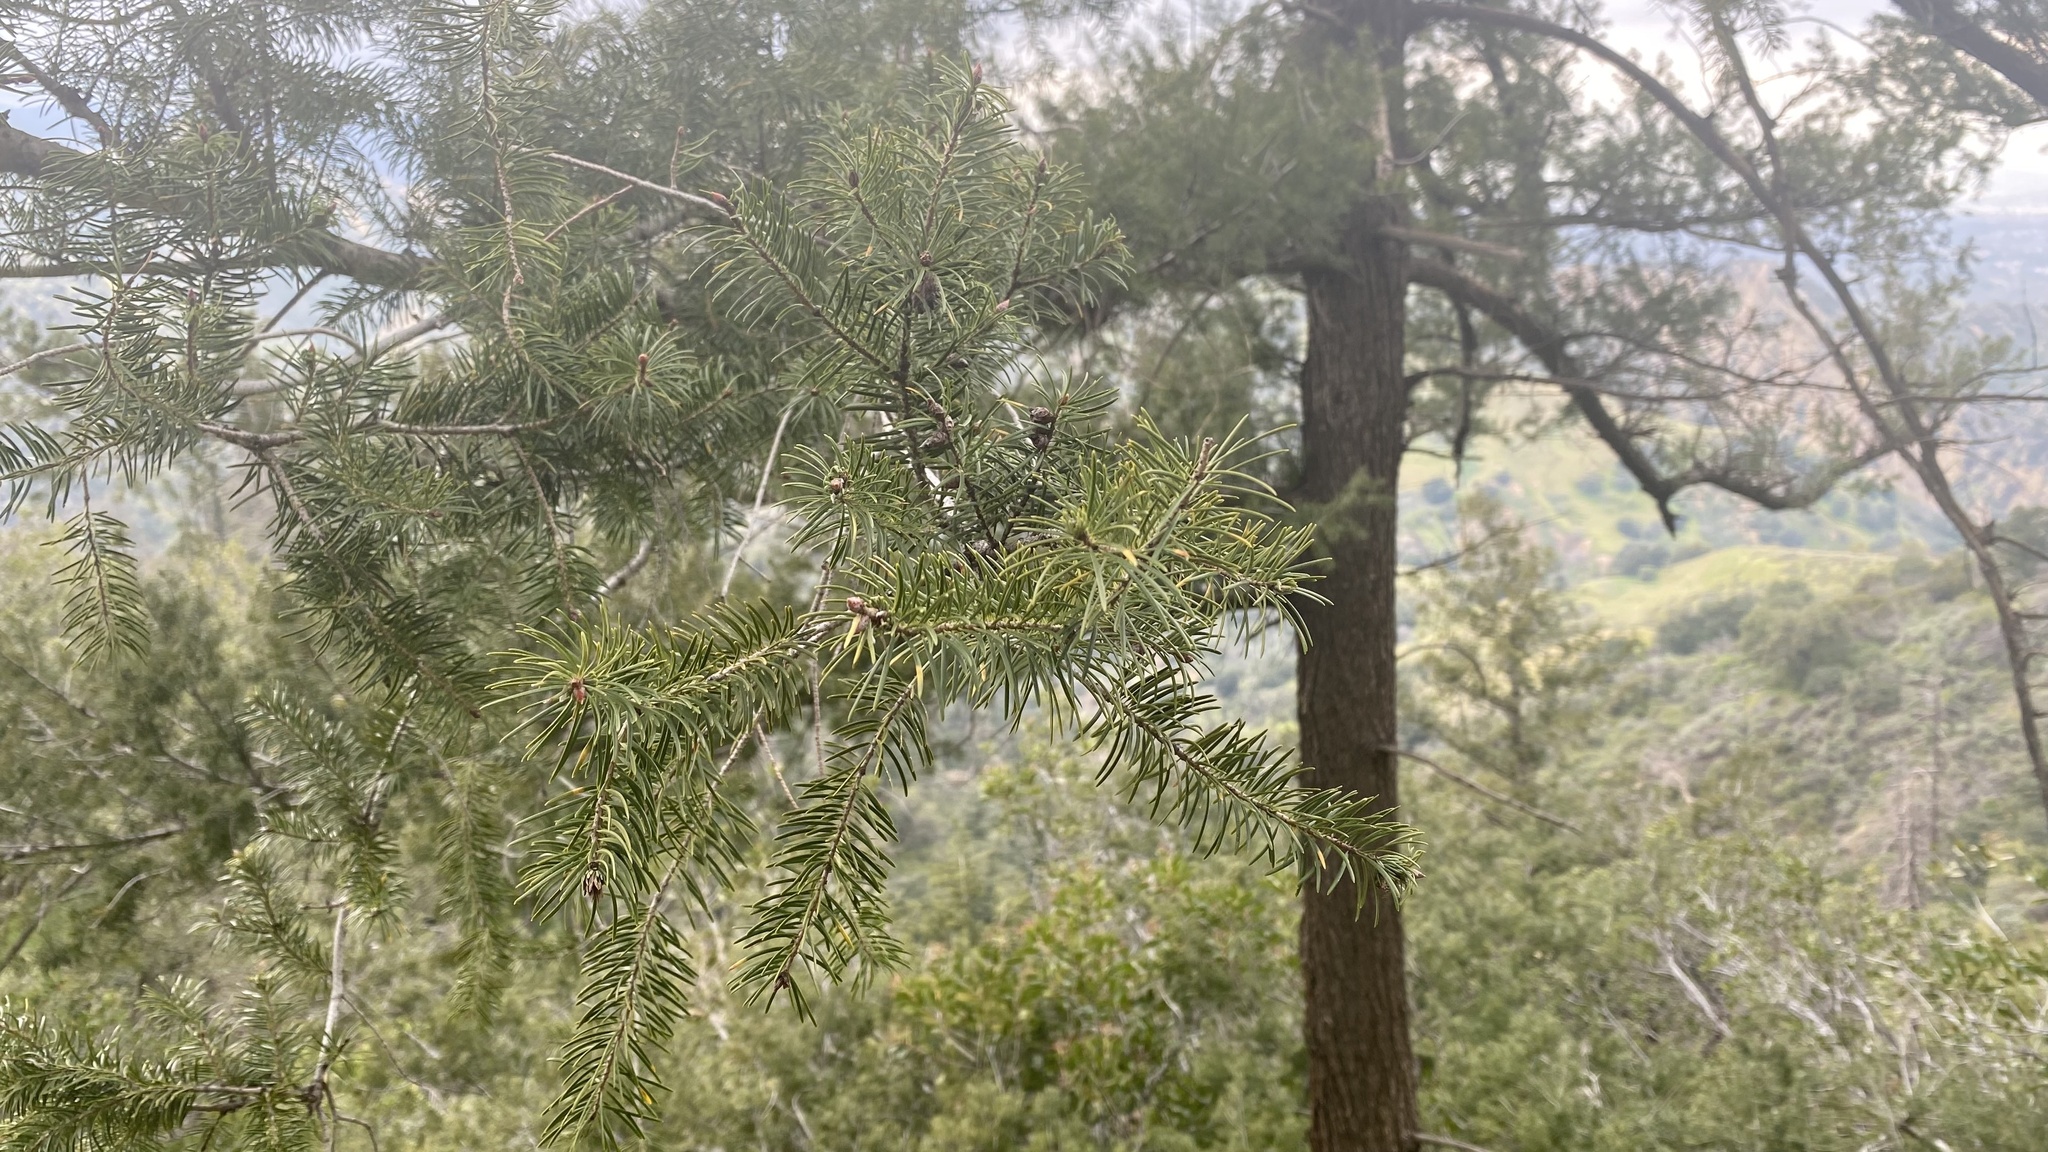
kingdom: Plantae
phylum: Tracheophyta
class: Pinopsida
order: Pinales
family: Pinaceae
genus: Pseudotsuga
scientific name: Pseudotsuga macrocarpa
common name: Big-cone douglas-fir
